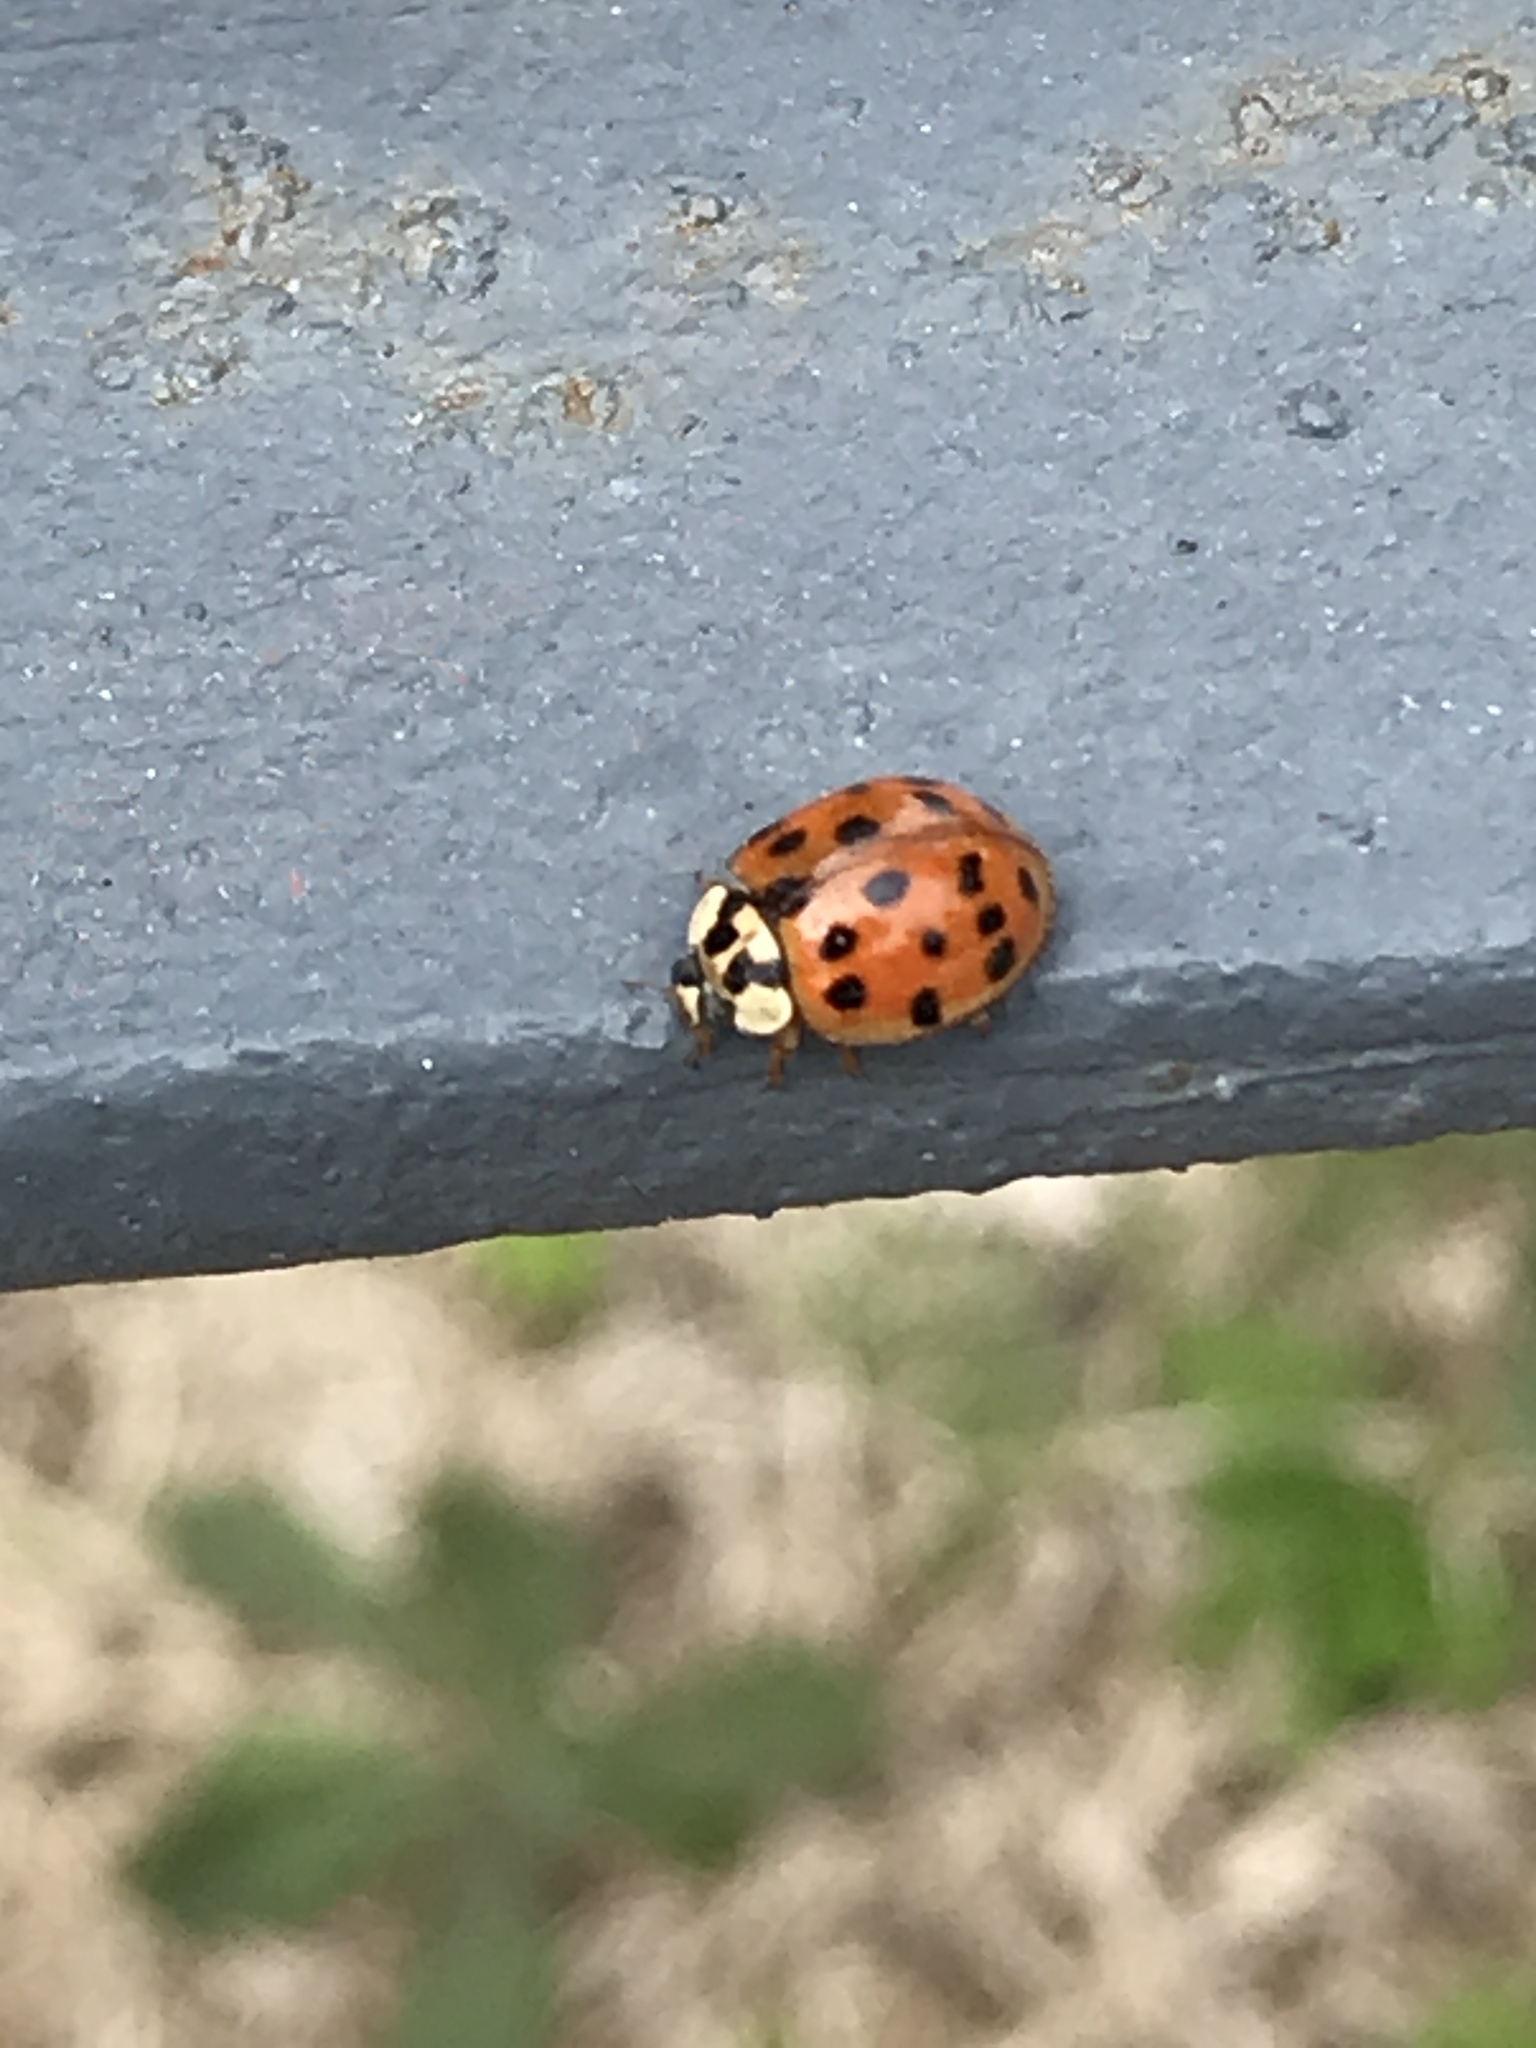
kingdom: Animalia
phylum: Arthropoda
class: Insecta
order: Coleoptera
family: Coccinellidae
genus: Harmonia
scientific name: Harmonia axyridis
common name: Harlequin ladybird
